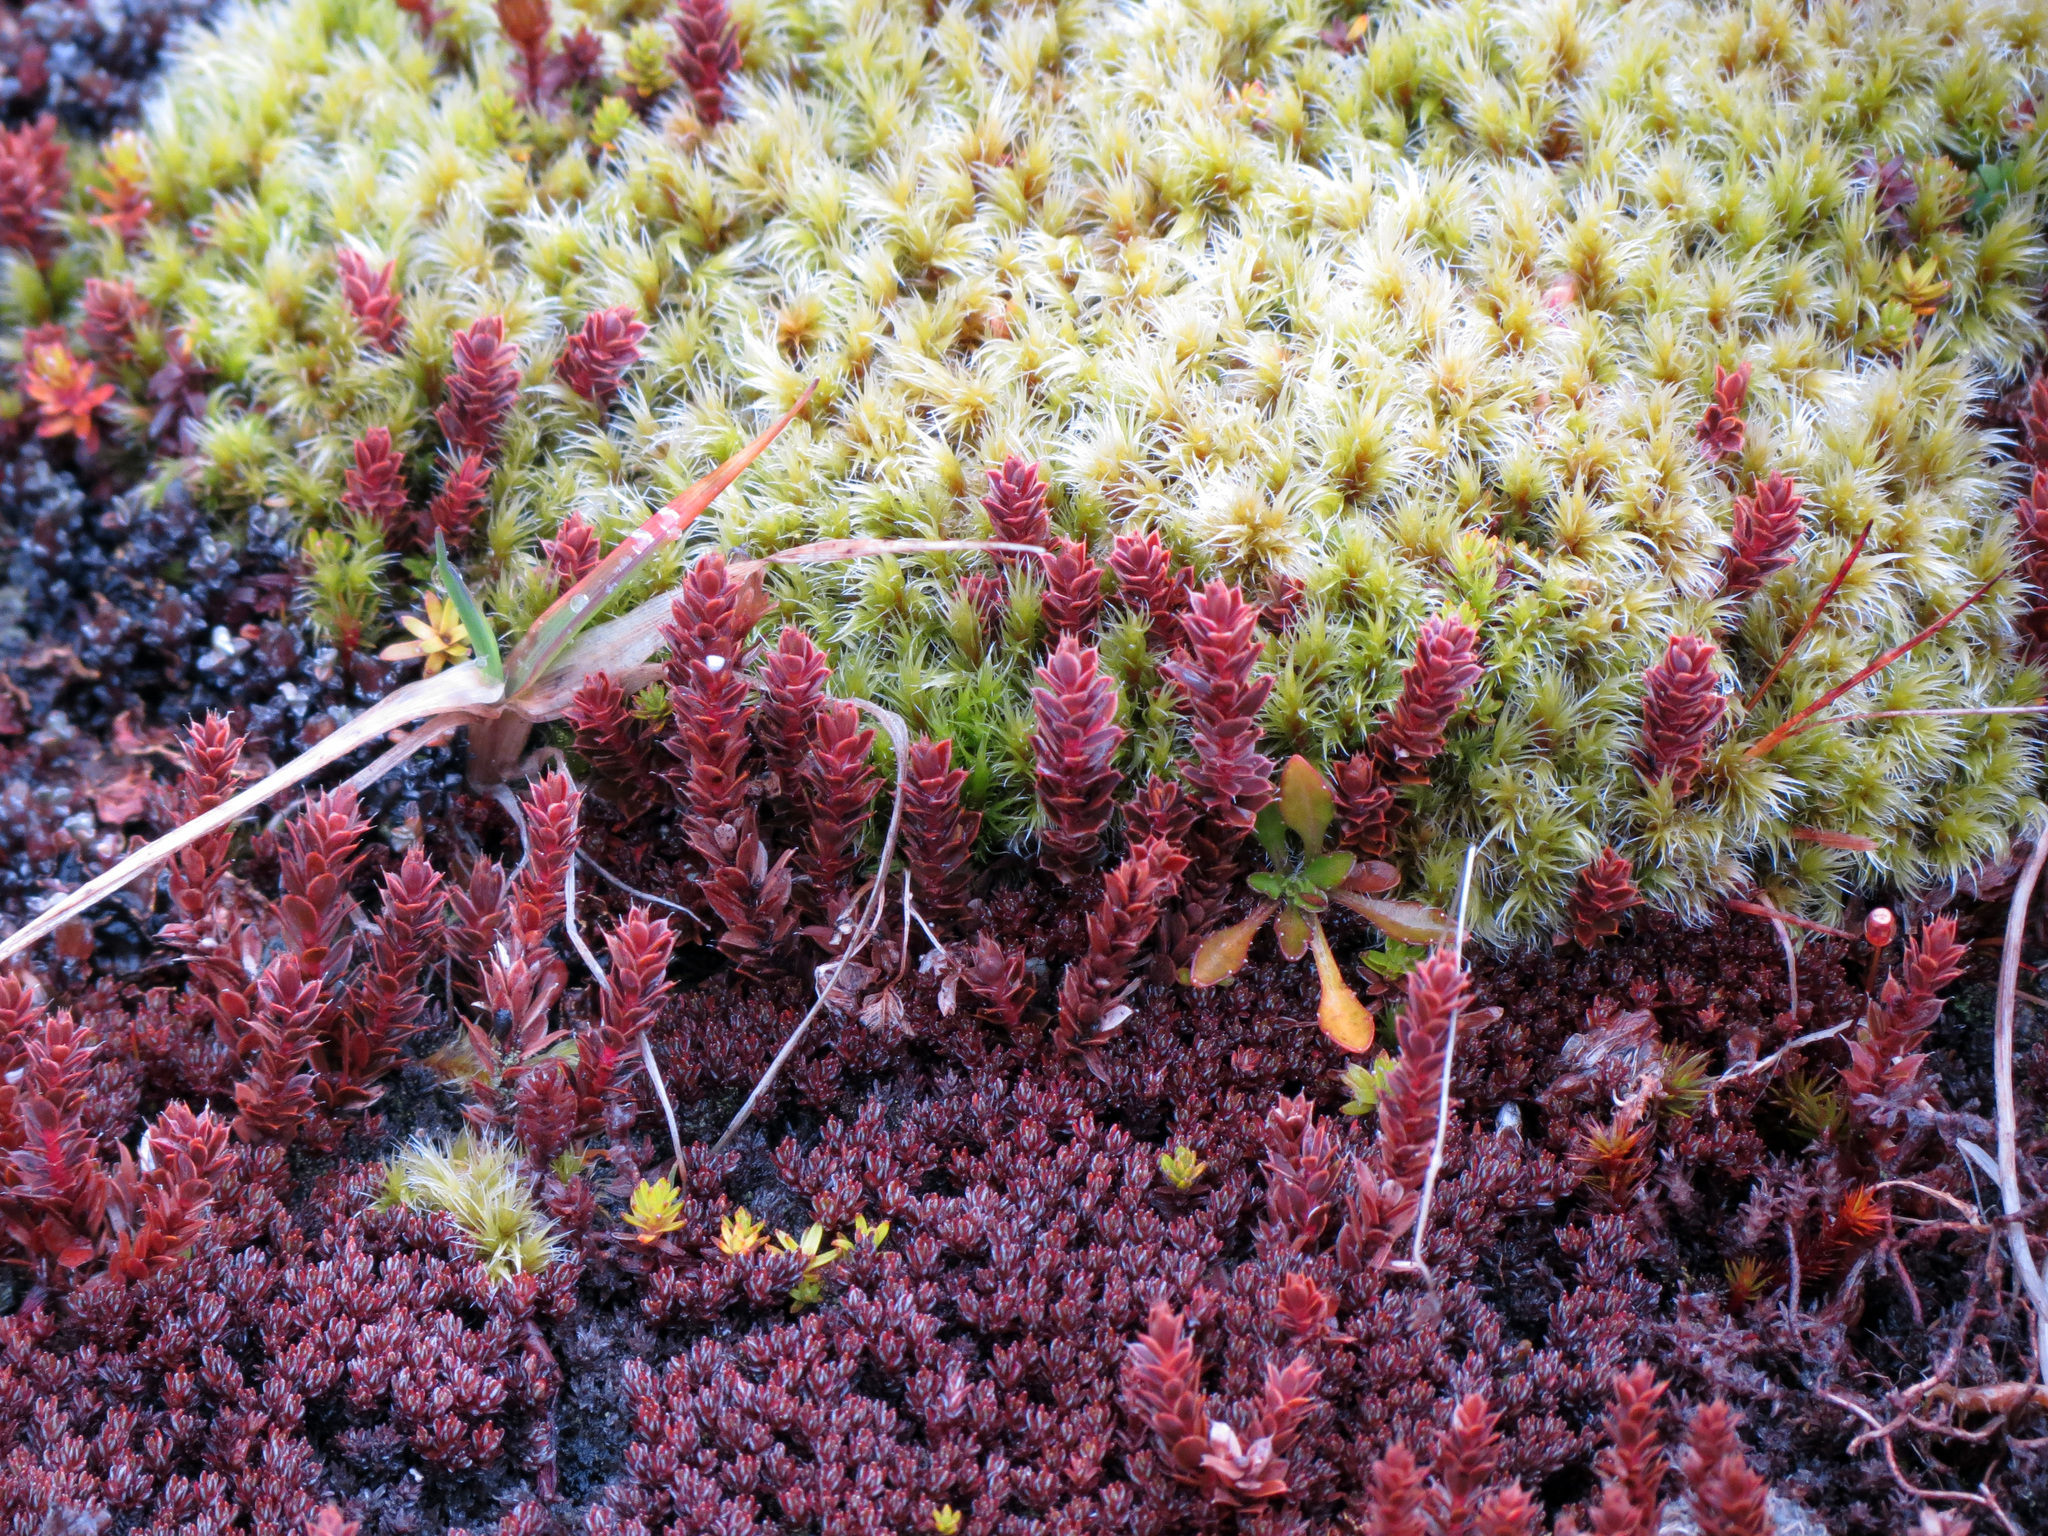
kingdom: Plantae
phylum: Tracheophyta
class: Magnoliopsida
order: Asterales
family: Asteraceae
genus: Raoulia
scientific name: Raoulia glabra
